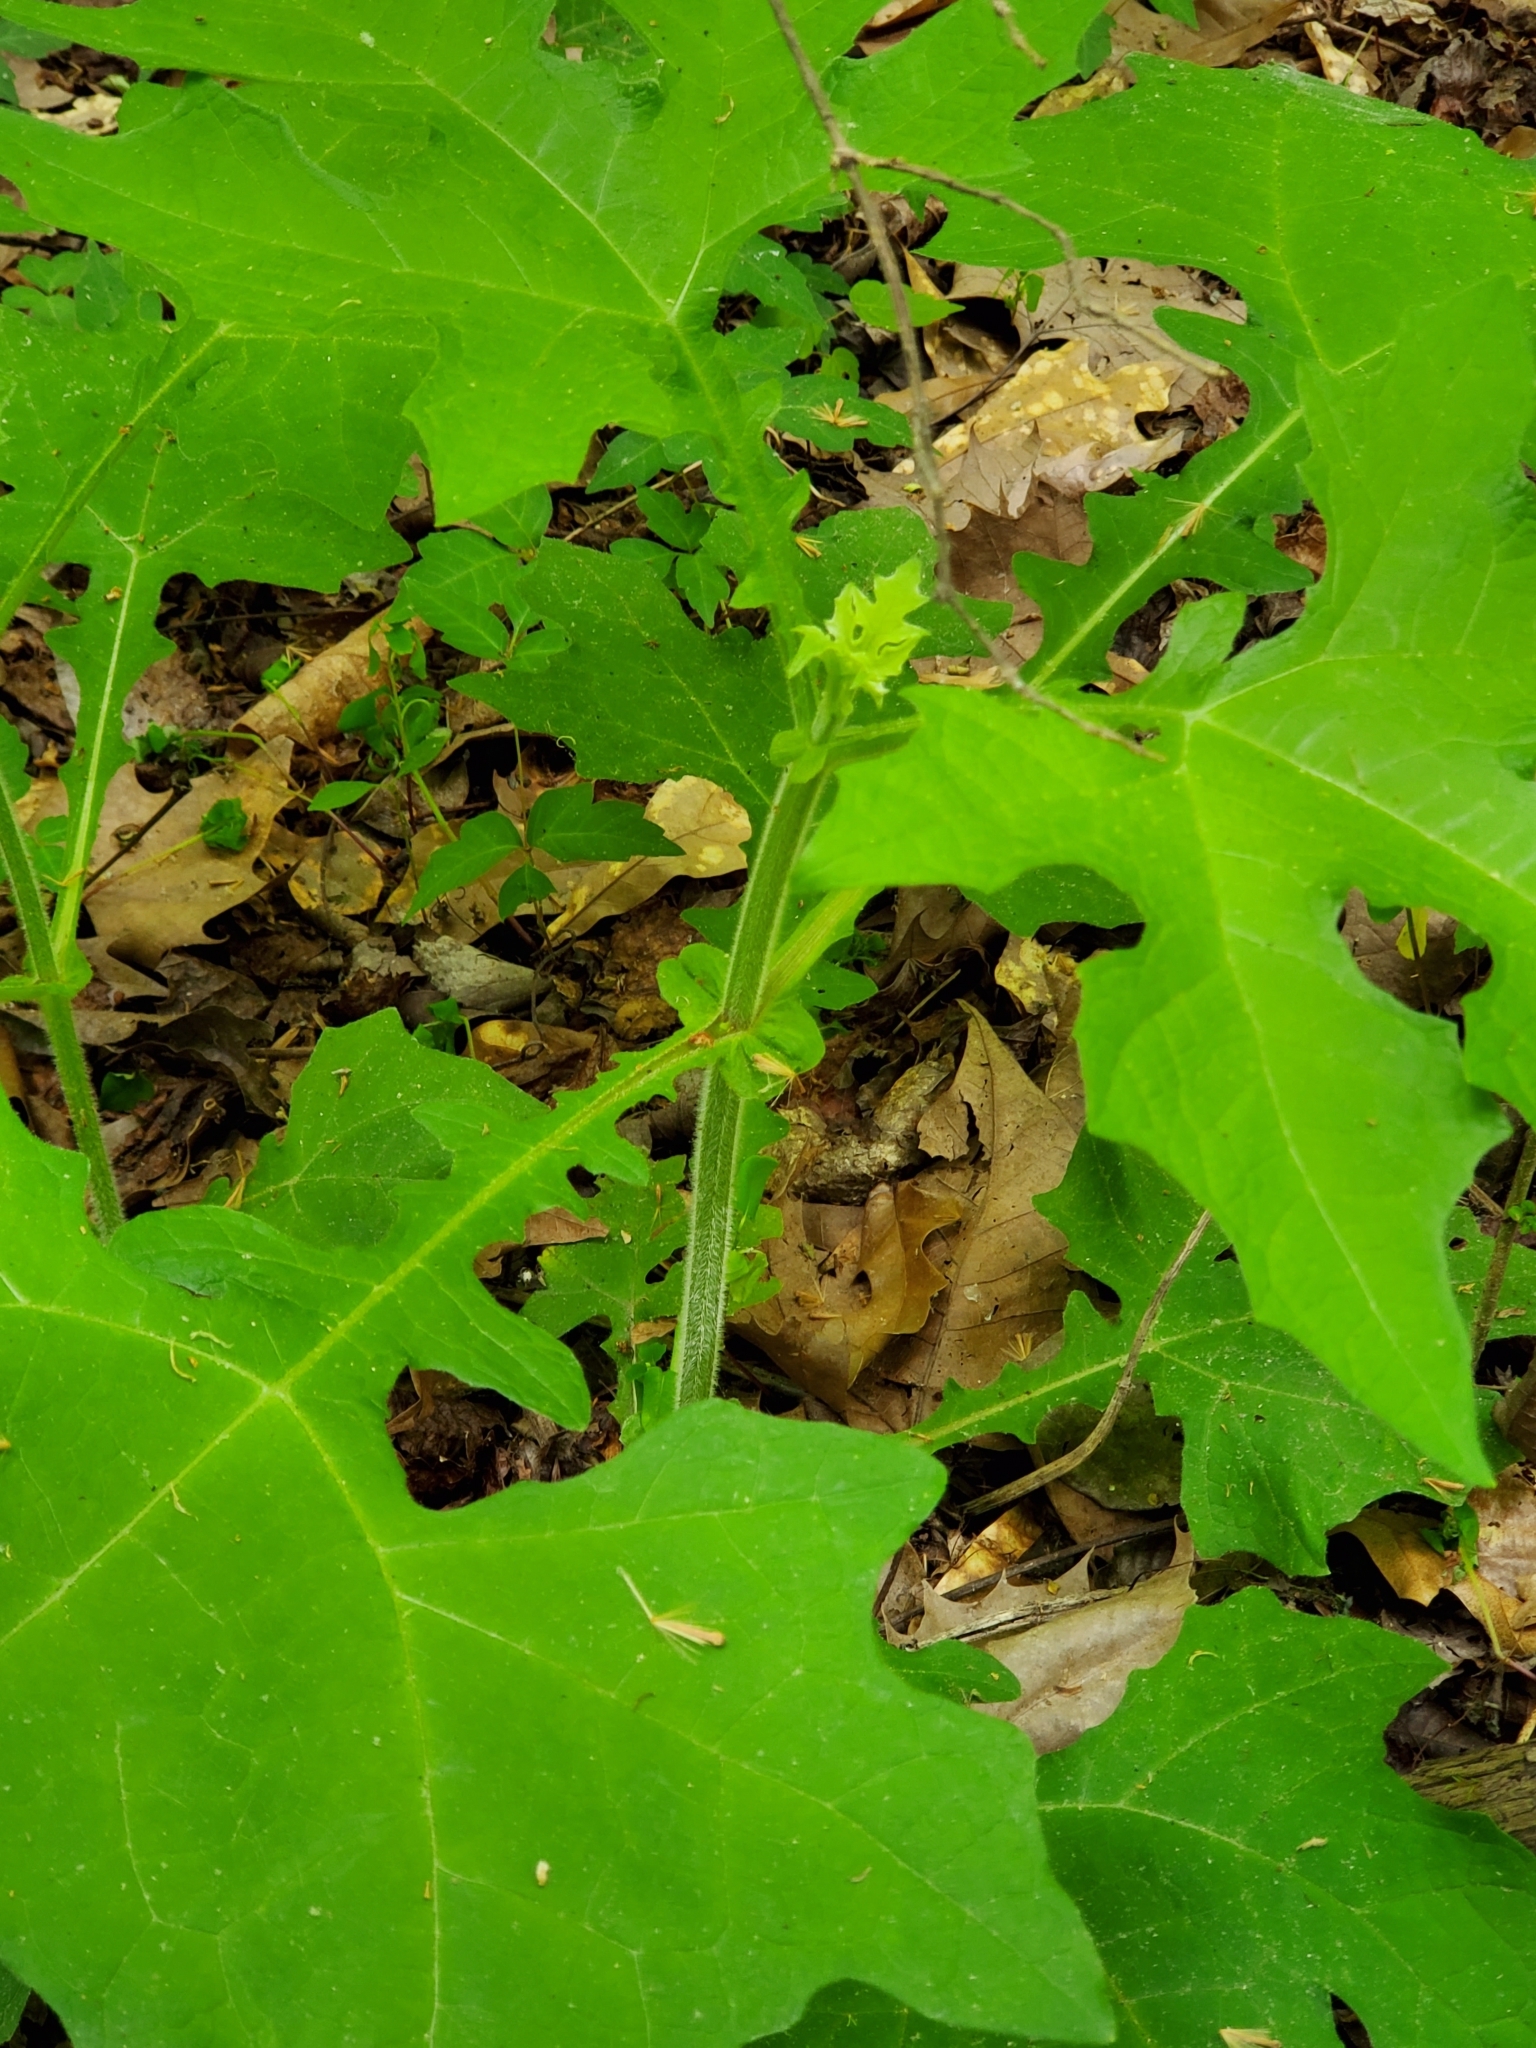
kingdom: Plantae
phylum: Tracheophyta
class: Magnoliopsida
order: Asterales
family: Asteraceae
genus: Smallanthus
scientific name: Smallanthus uvedalia
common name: Bear's-foot
